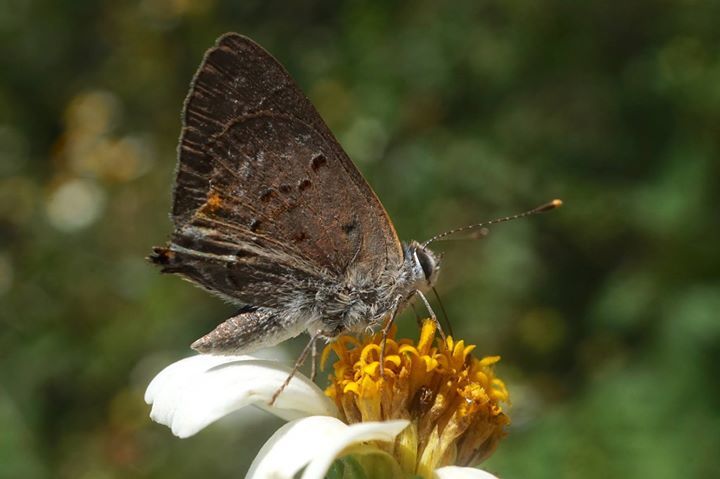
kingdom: Animalia
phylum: Arthropoda
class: Insecta
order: Lepidoptera
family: Lycaenidae
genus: Callicista
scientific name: Callicista columella
